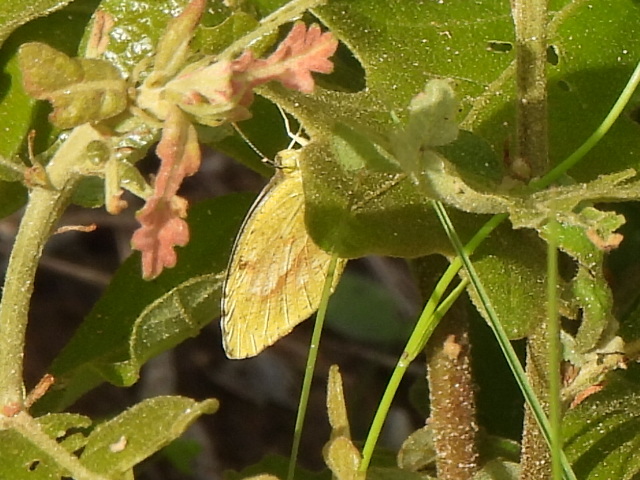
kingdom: Animalia
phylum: Arthropoda
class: Insecta
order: Lepidoptera
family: Pieridae
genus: Abaeis
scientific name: Abaeis nicippe
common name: Sleepy orange
